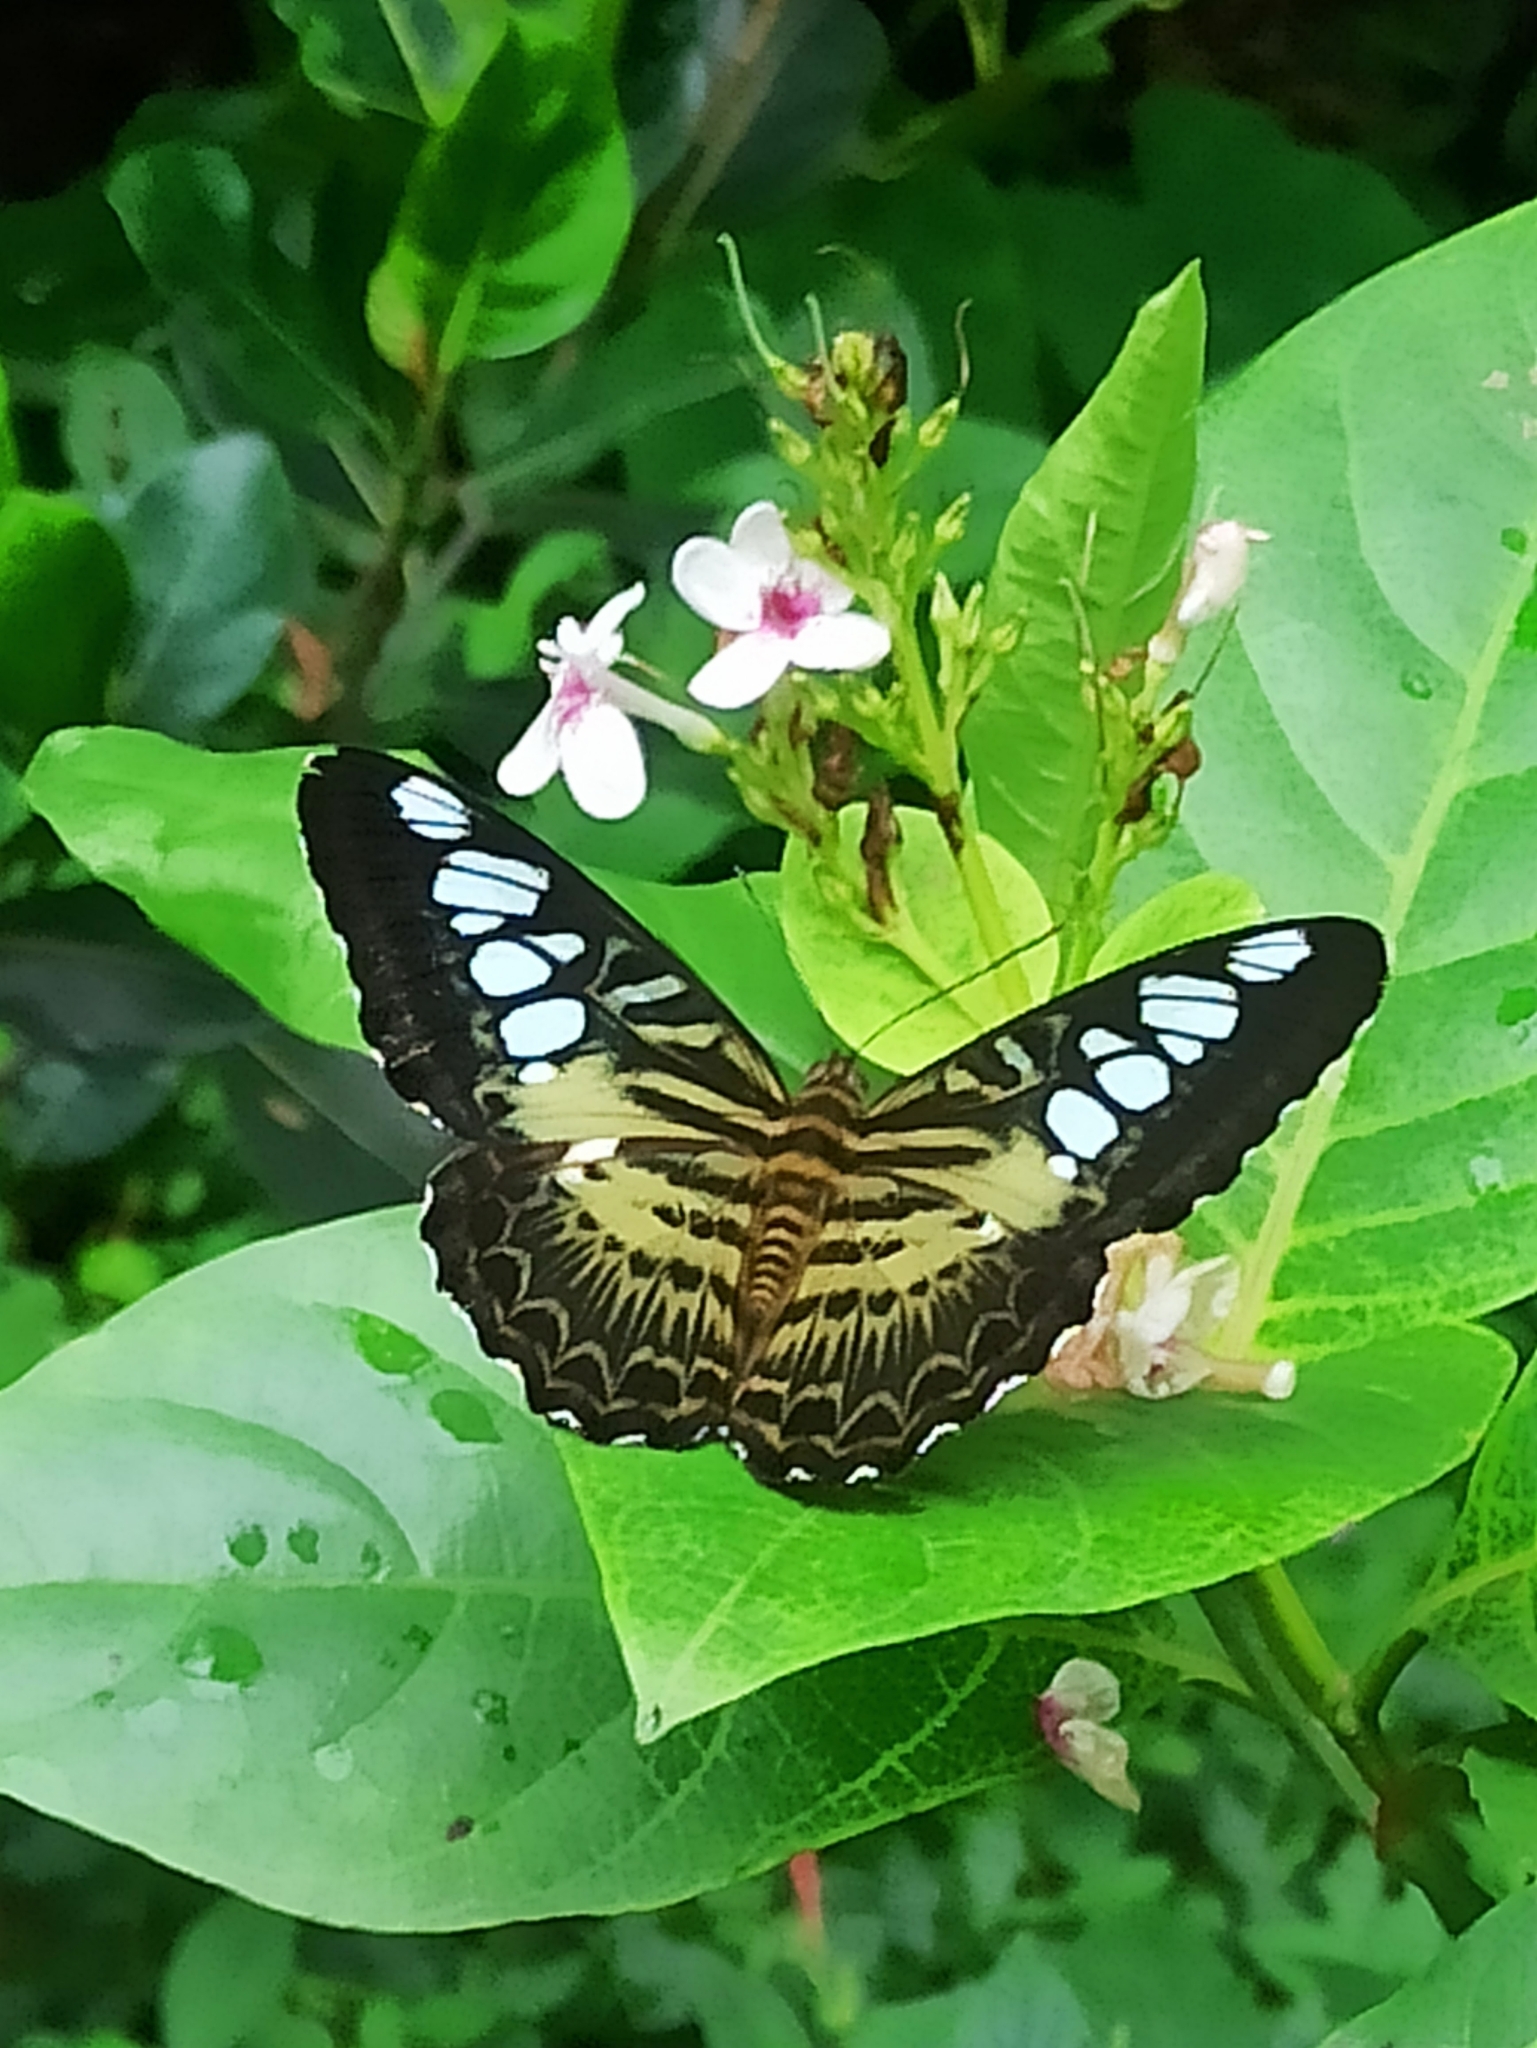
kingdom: Animalia
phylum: Arthropoda
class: Insecta
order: Lepidoptera
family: Nymphalidae
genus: Kallima
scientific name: Kallima sylvia
